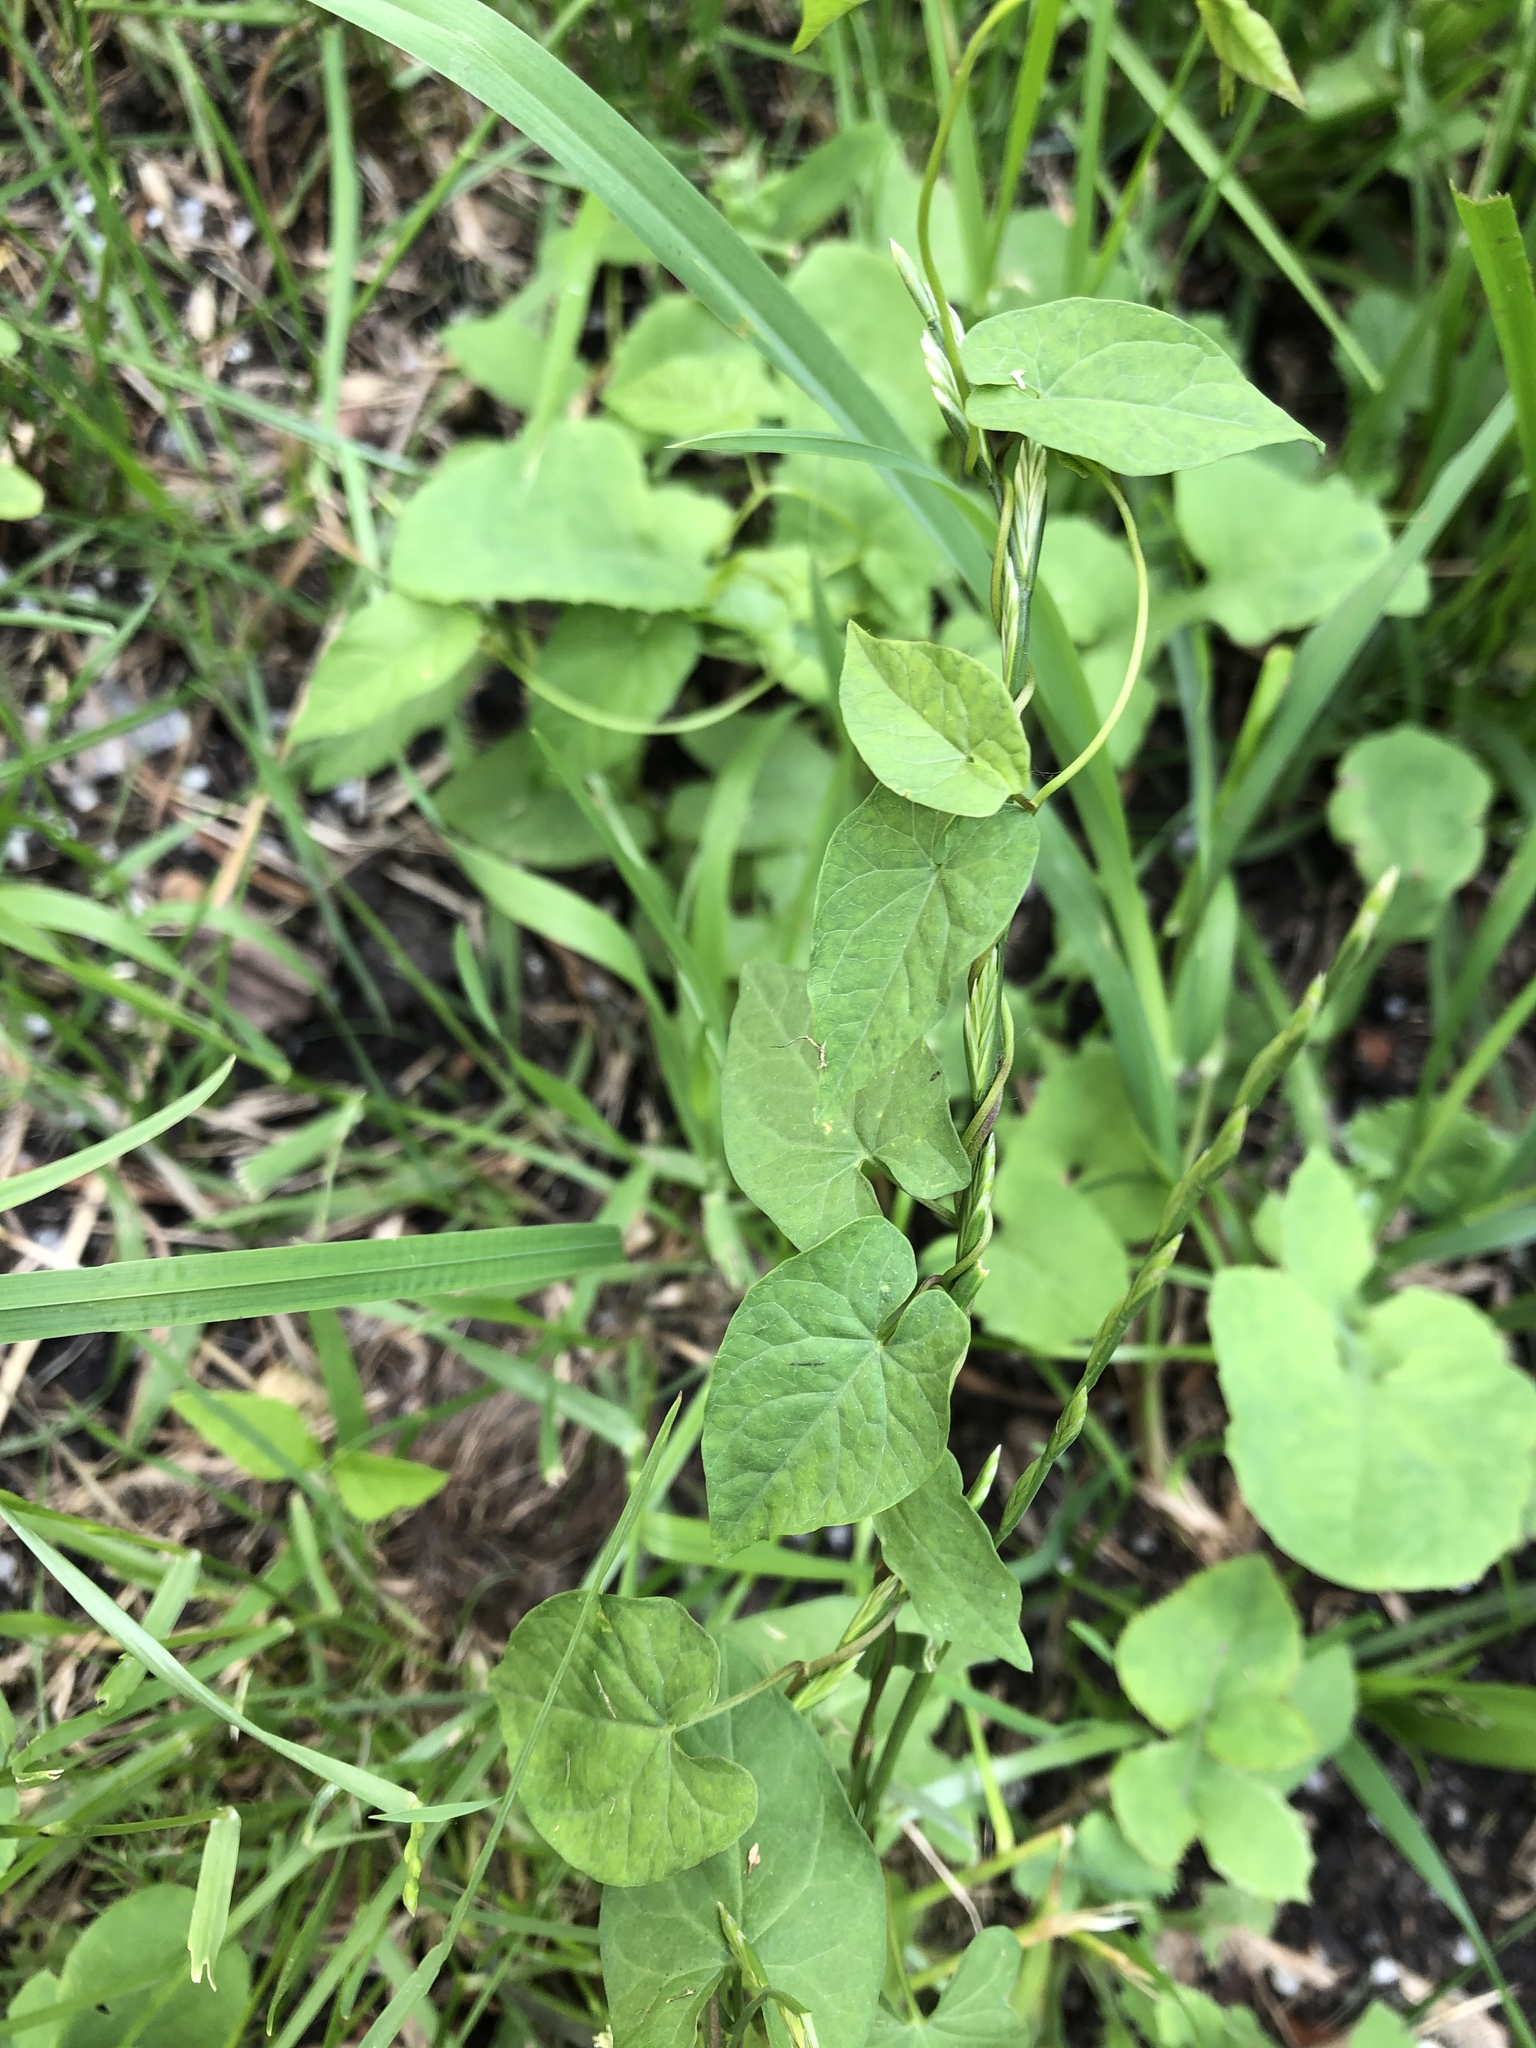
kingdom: Plantae
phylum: Tracheophyta
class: Magnoliopsida
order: Solanales
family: Convolvulaceae
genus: Calystegia
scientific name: Calystegia
